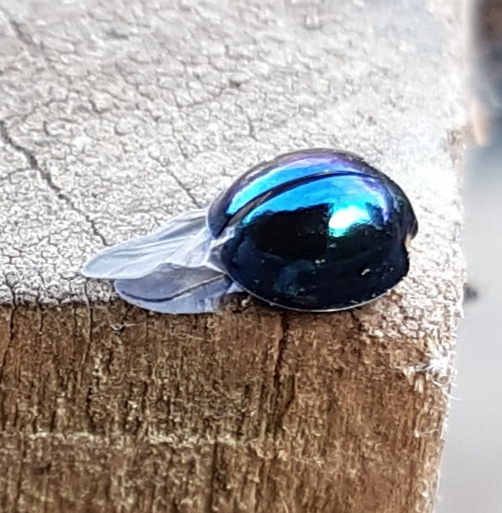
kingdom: Animalia
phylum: Arthropoda
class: Insecta
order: Coleoptera
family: Coccinellidae
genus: Halmus
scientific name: Halmus chalybeus
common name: Steel blue ladybird beetle
